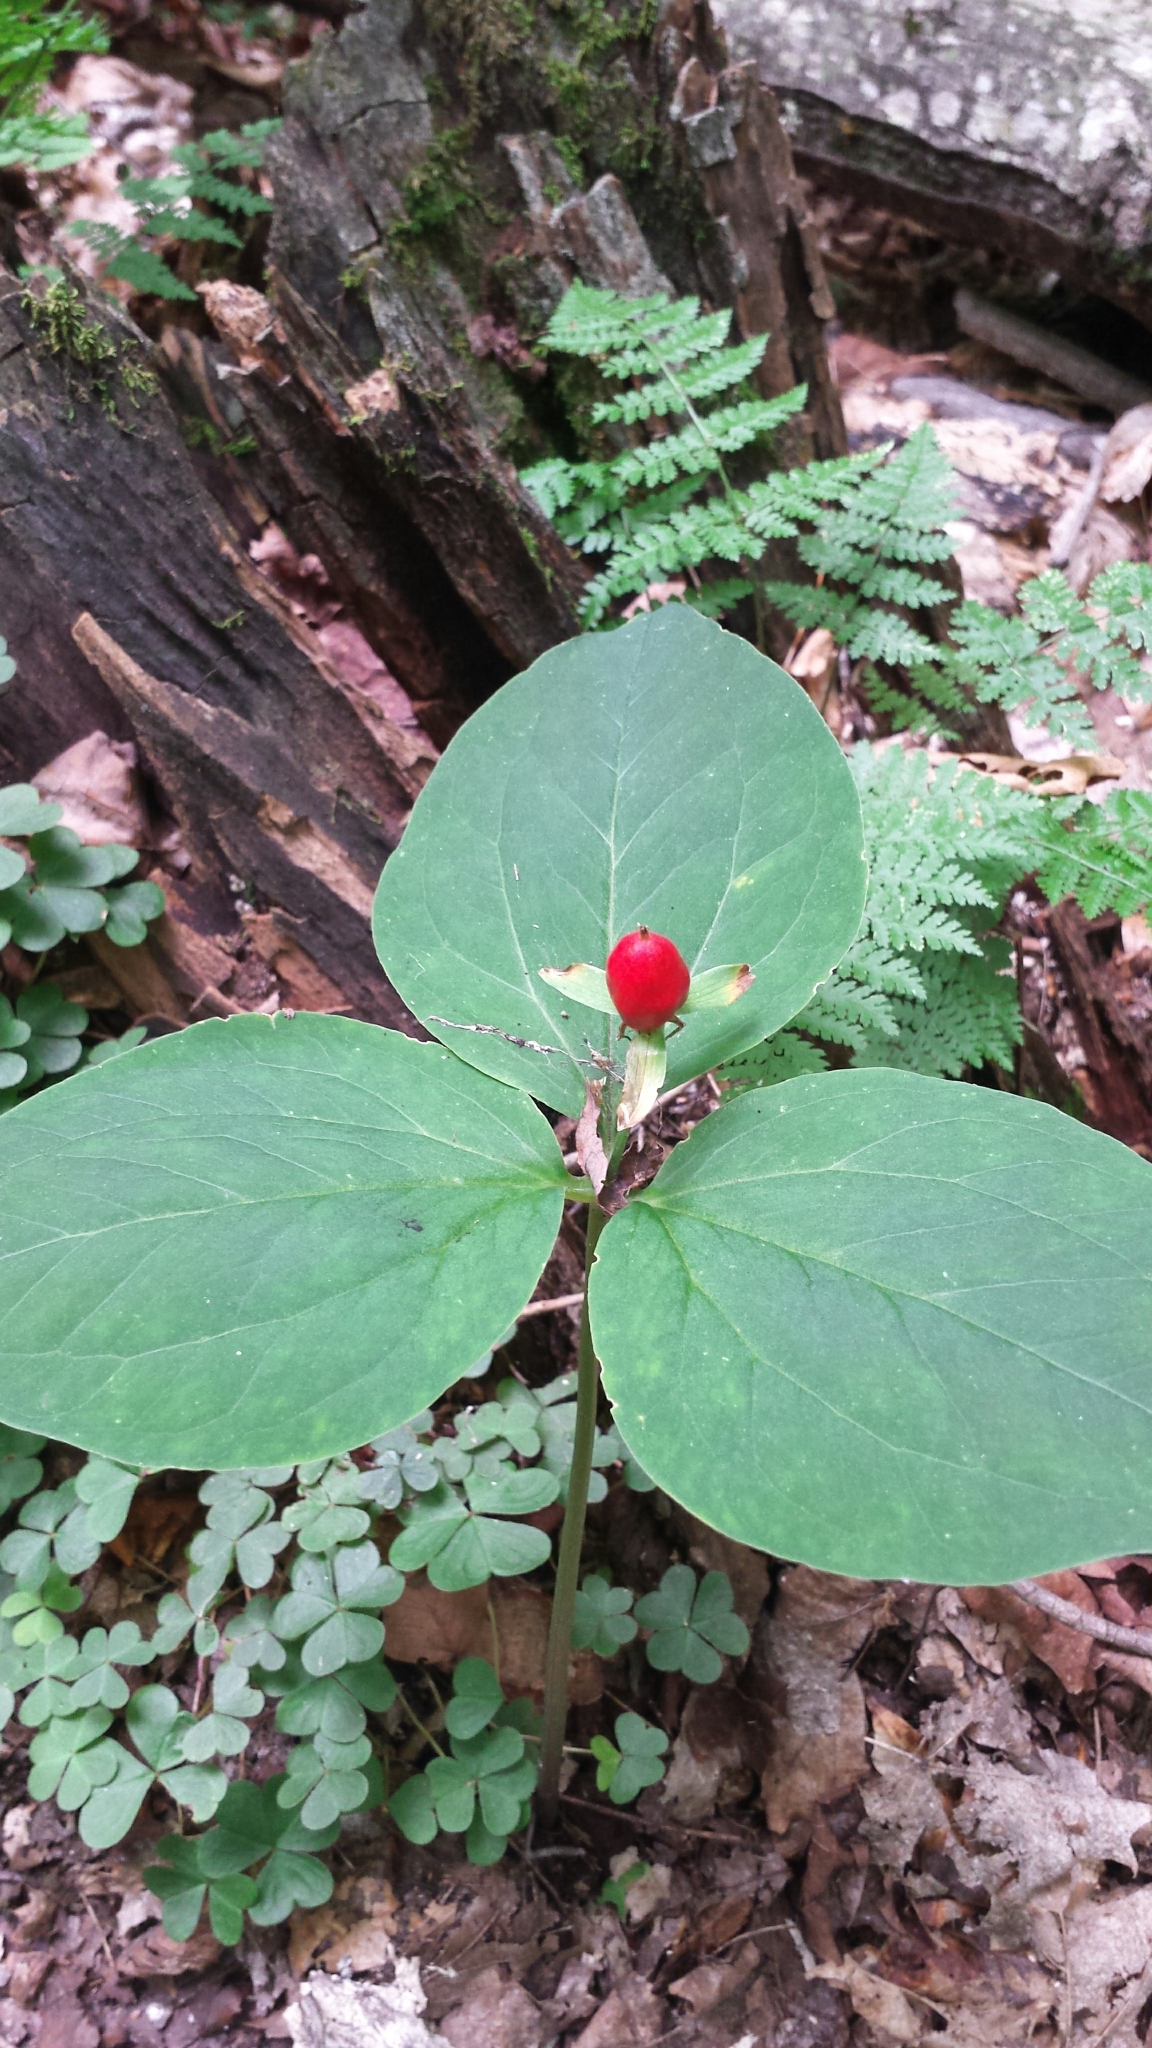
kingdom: Plantae
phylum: Tracheophyta
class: Liliopsida
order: Liliales
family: Melanthiaceae
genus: Trillium
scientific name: Trillium undulatum
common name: Paint trillium
